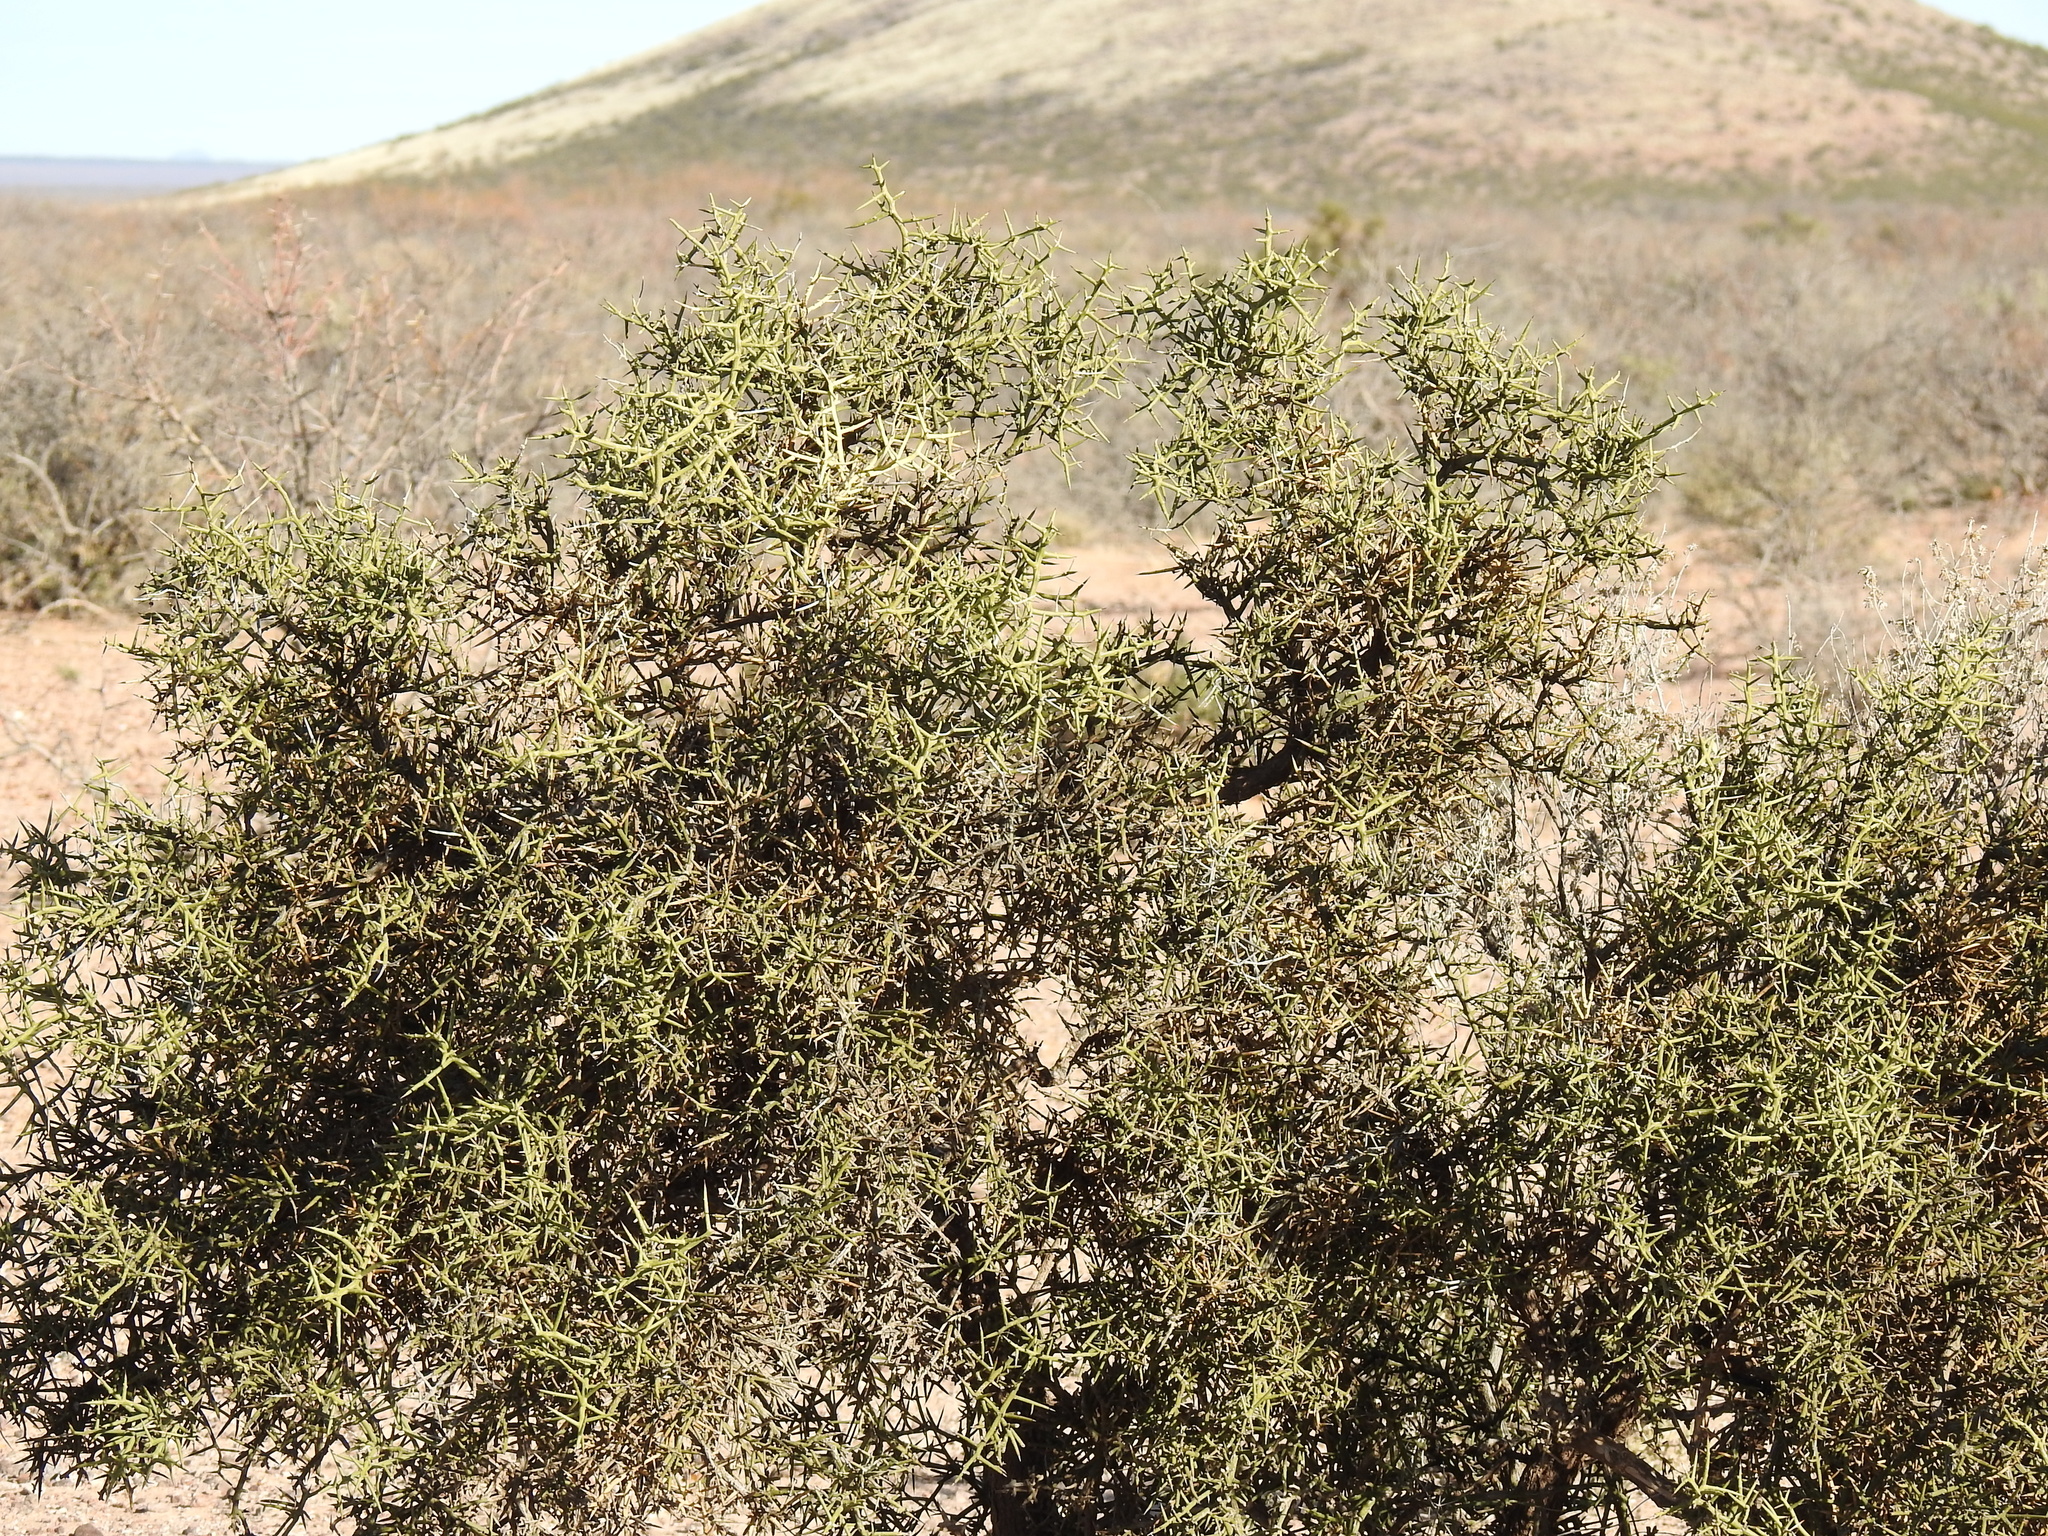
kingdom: Plantae
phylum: Tracheophyta
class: Magnoliopsida
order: Brassicales
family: Koeberliniaceae
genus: Koeberlinia
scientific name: Koeberlinia spinosa
